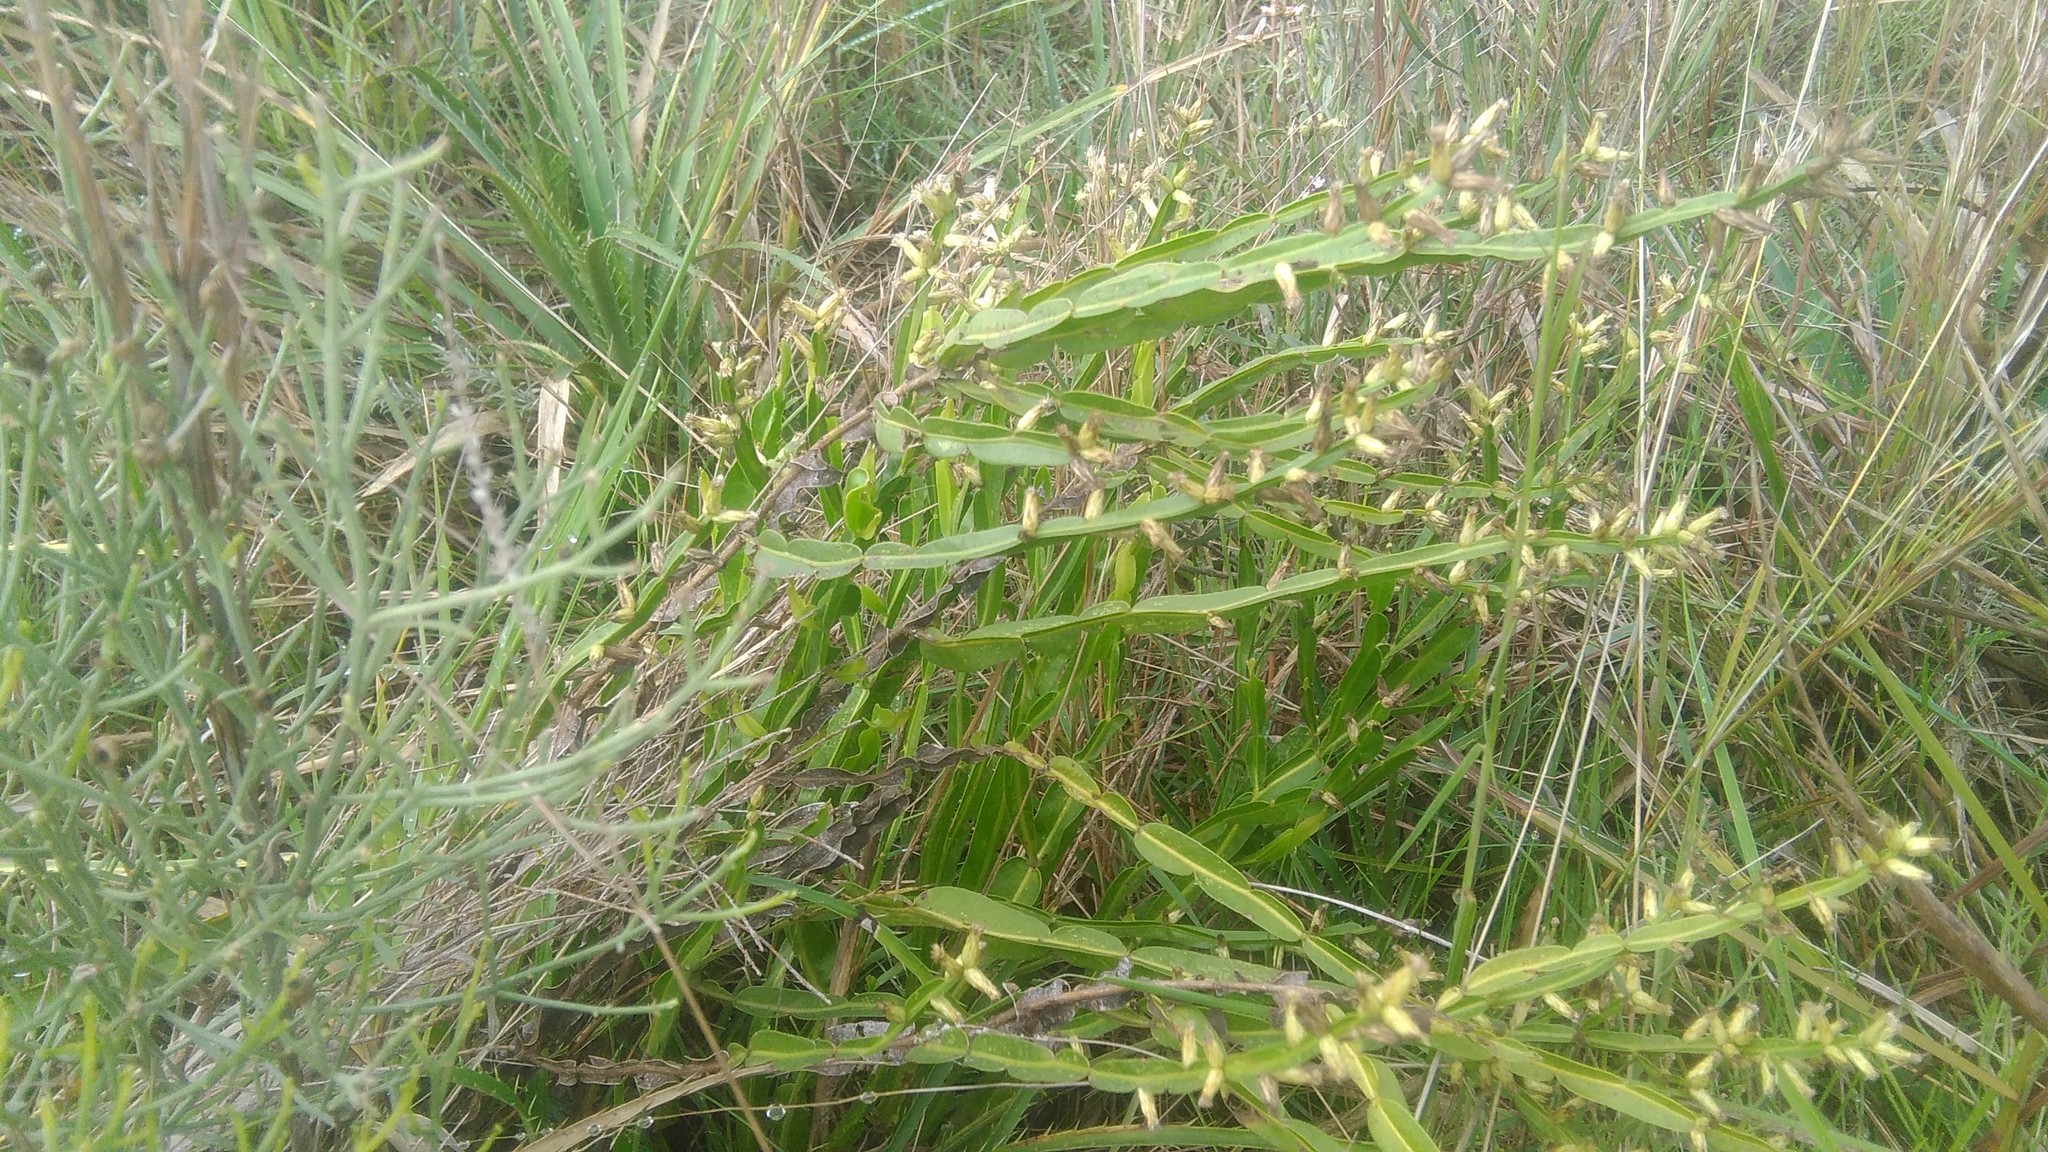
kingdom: Plantae
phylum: Tracheophyta
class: Magnoliopsida
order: Asterales
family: Asteraceae
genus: Baccharis
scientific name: Baccharis trimera
